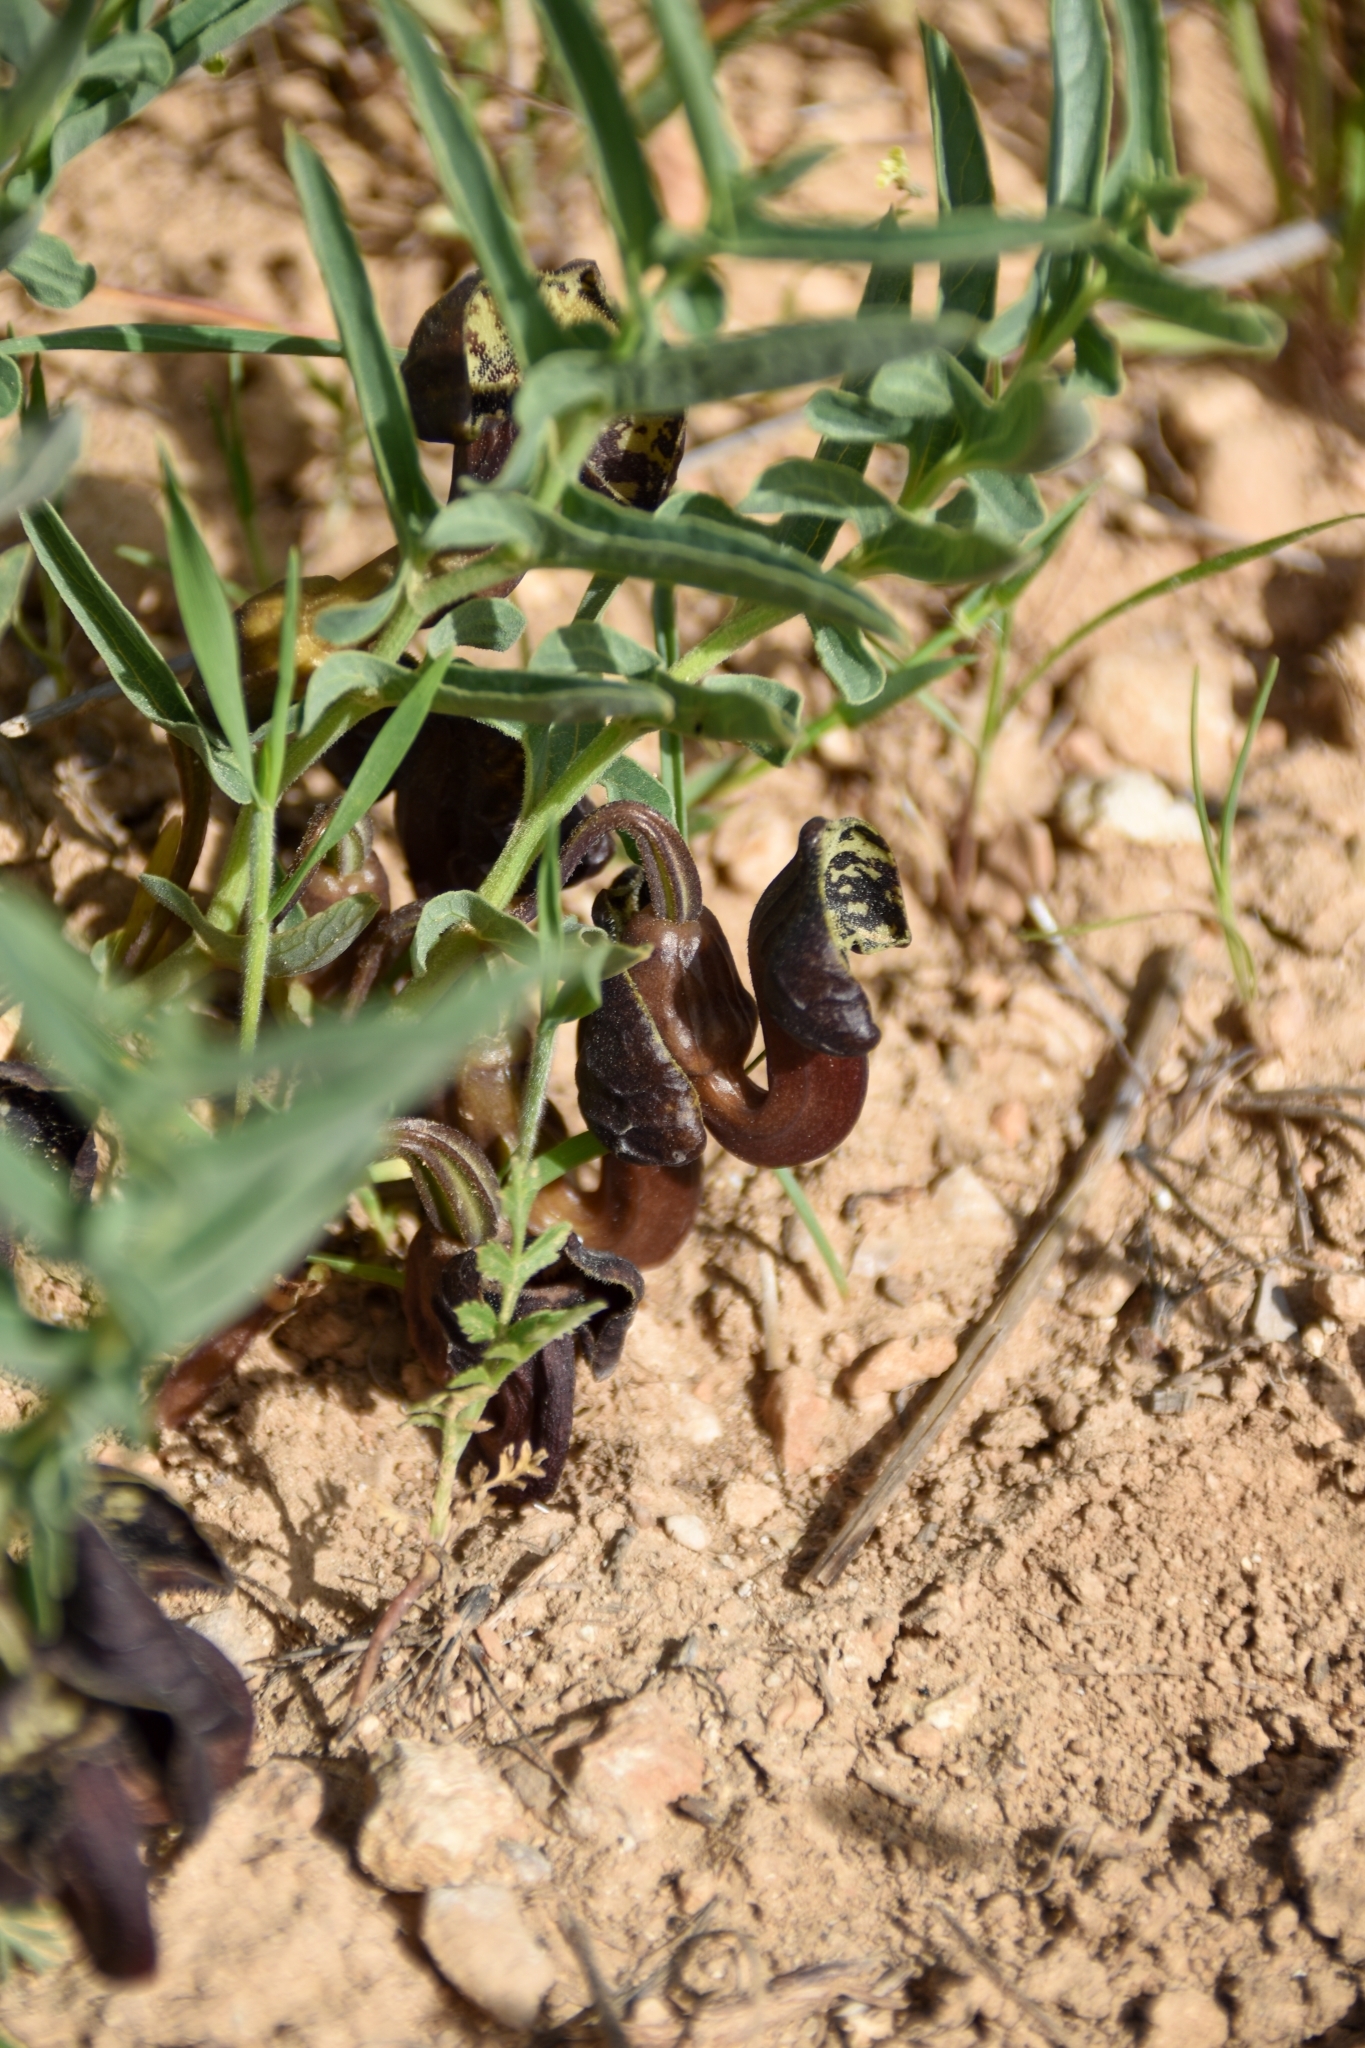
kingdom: Plantae
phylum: Tracheophyta
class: Magnoliopsida
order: Piperales
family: Aristolochiaceae
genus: Aristolochia
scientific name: Aristolochia maurorum
